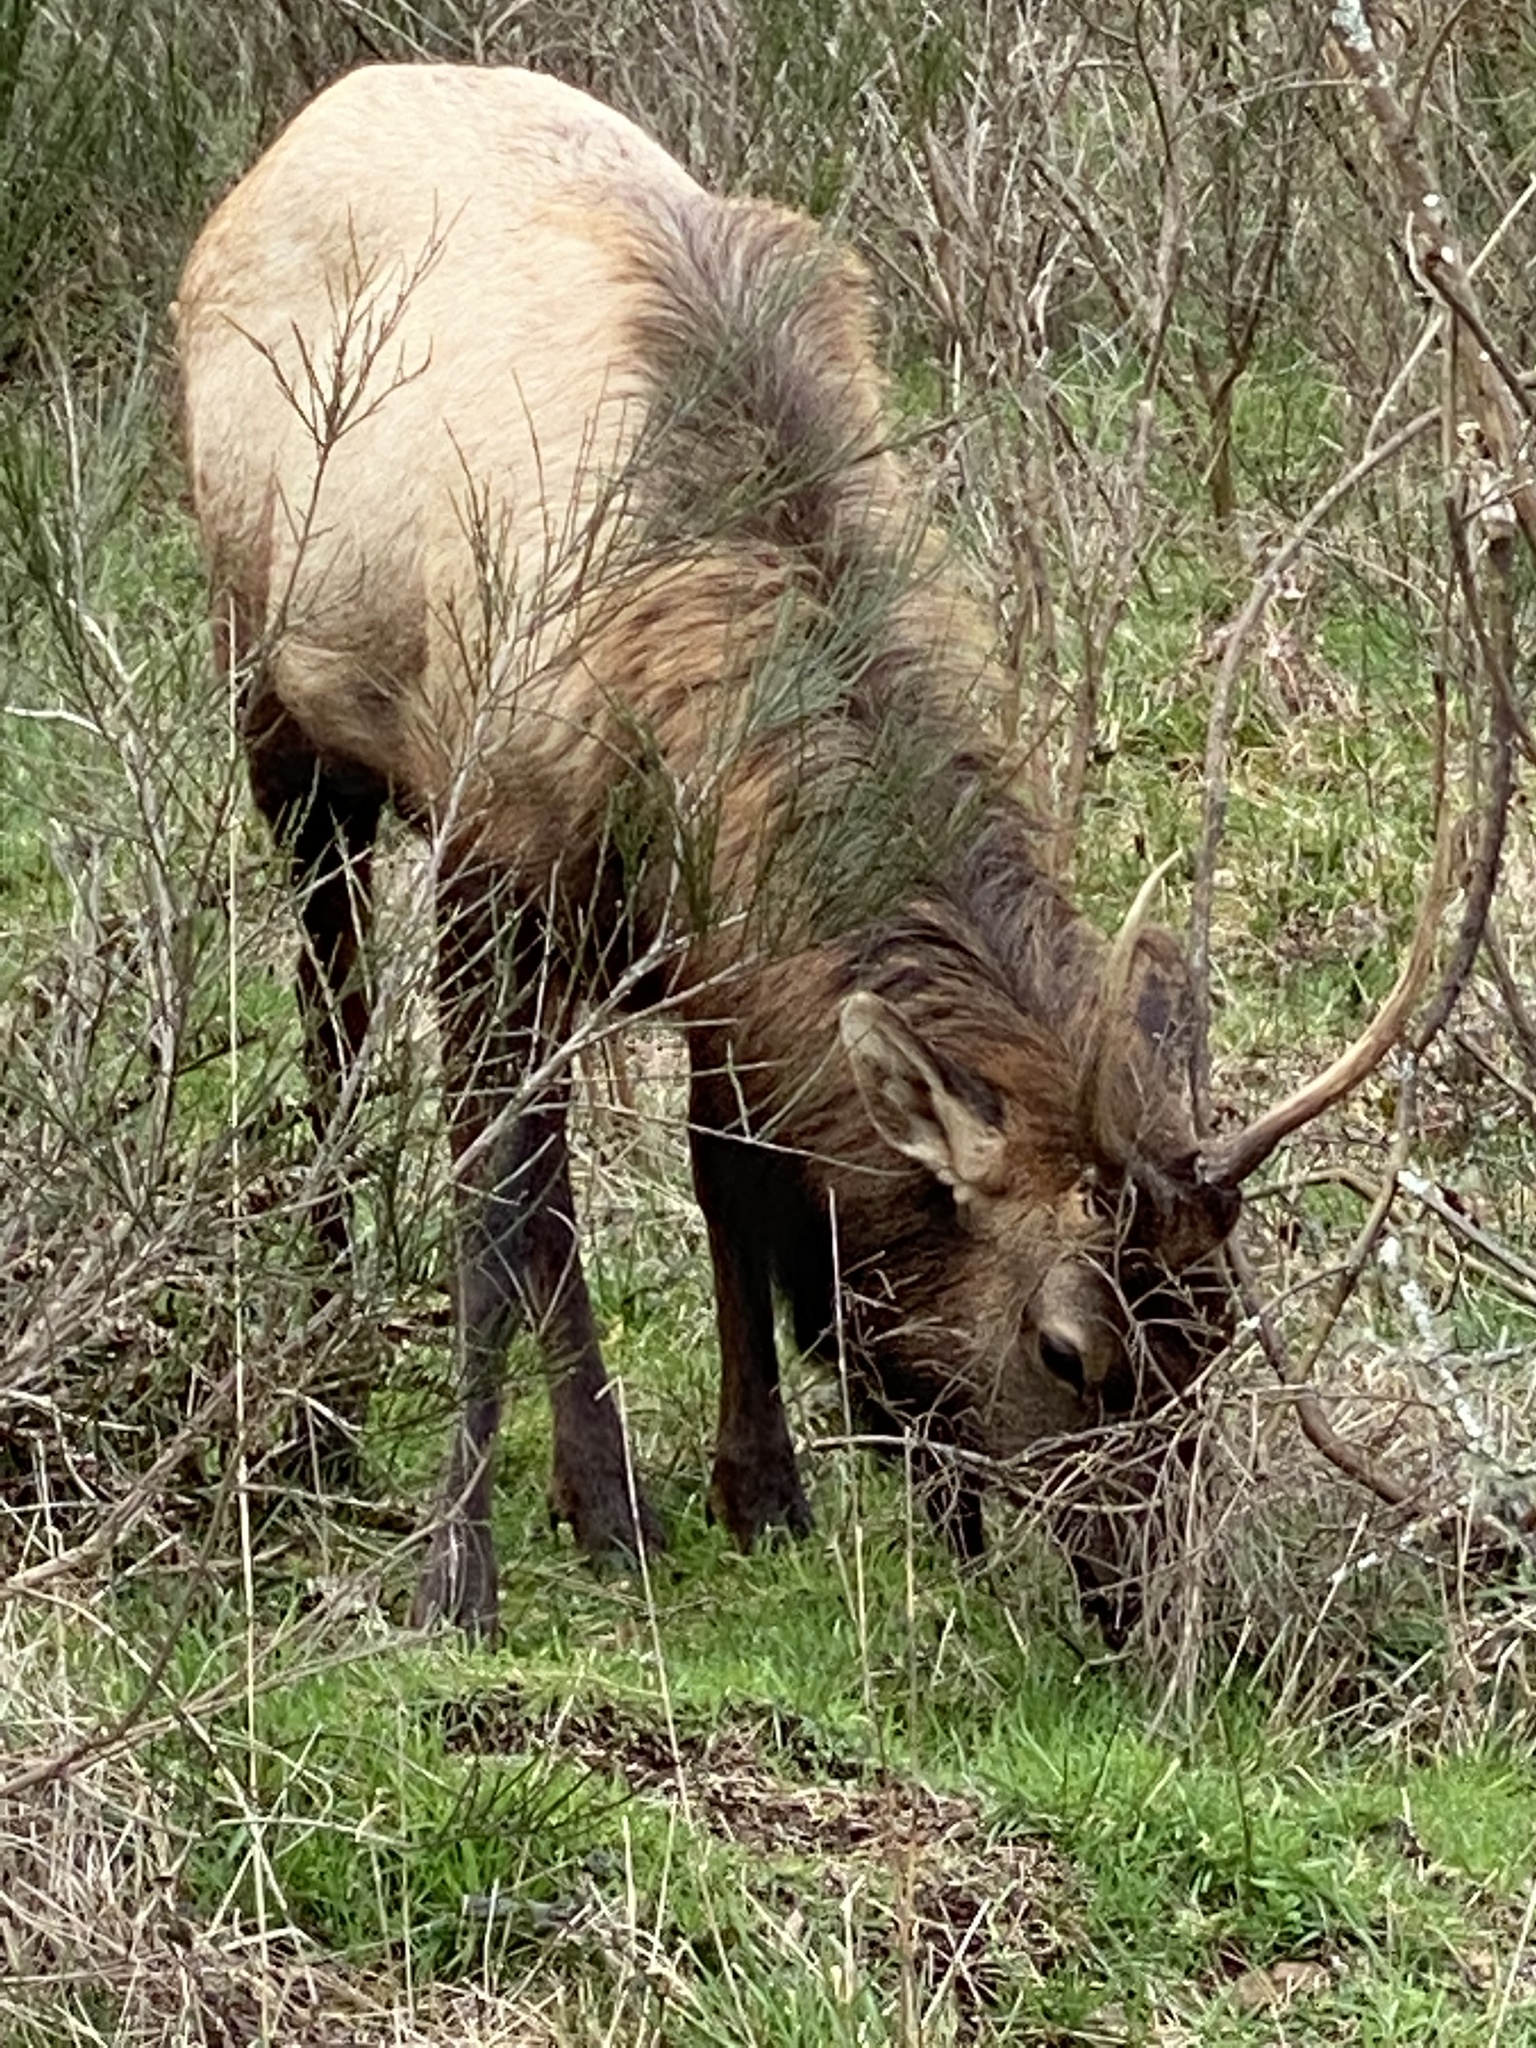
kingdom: Animalia
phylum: Chordata
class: Mammalia
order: Artiodactyla
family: Cervidae
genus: Cervus
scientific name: Cervus elaphus
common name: Red deer
